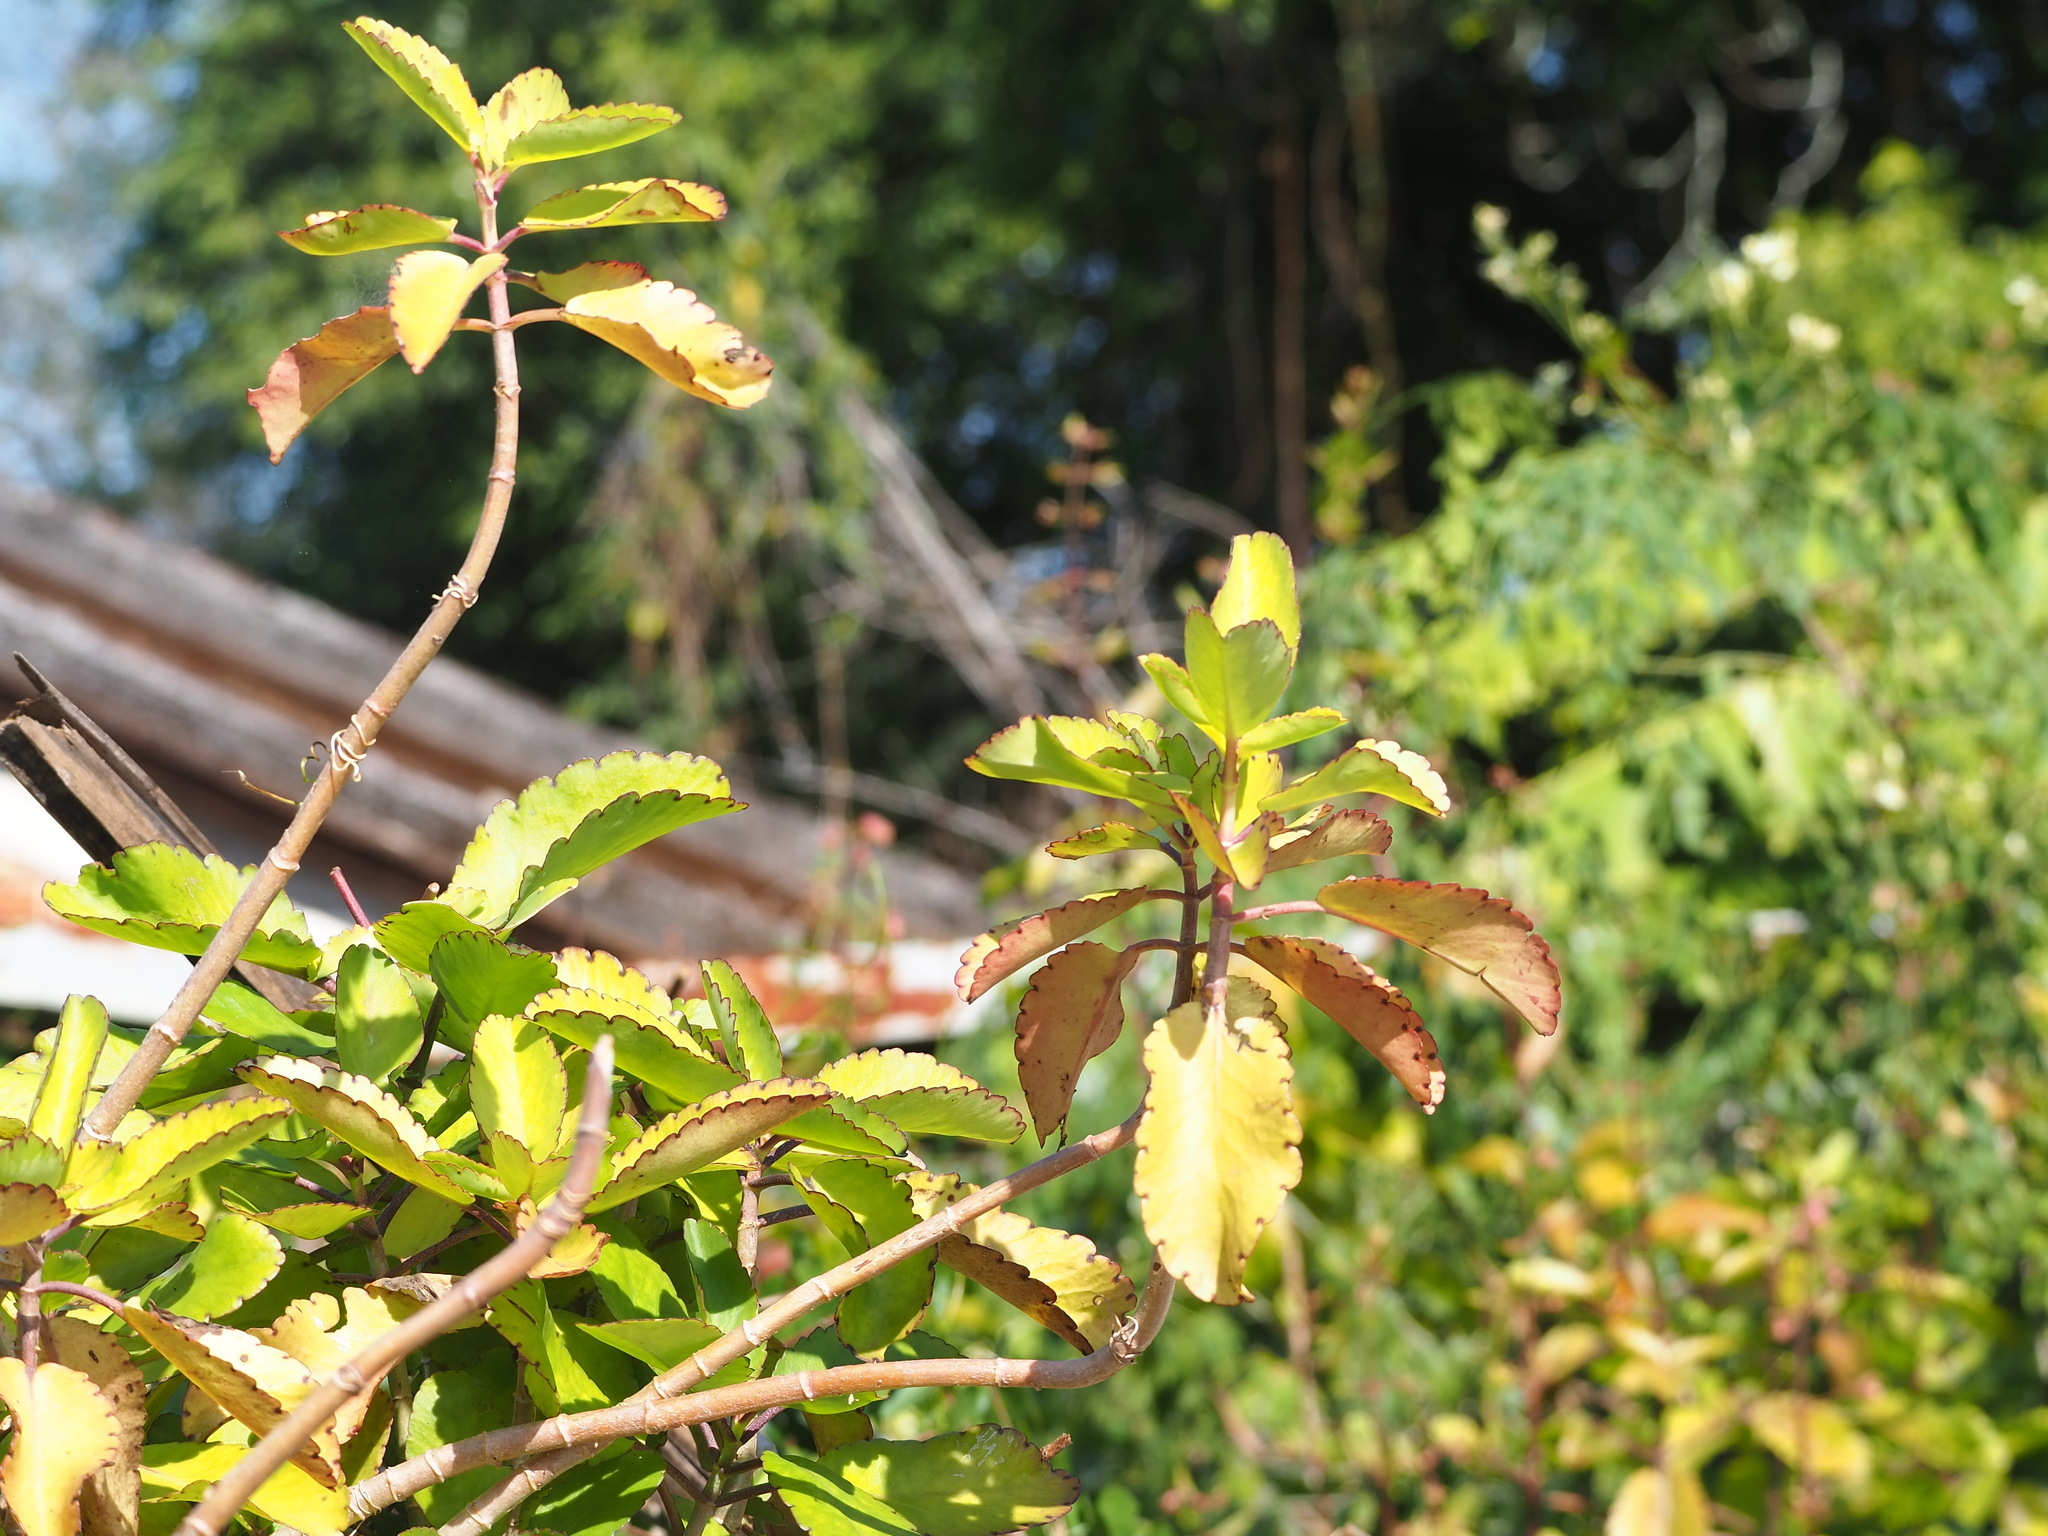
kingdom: Plantae
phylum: Tracheophyta
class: Magnoliopsida
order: Saxifragales
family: Crassulaceae
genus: Kalanchoe
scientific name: Kalanchoe pinnata
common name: Cathedral bells
